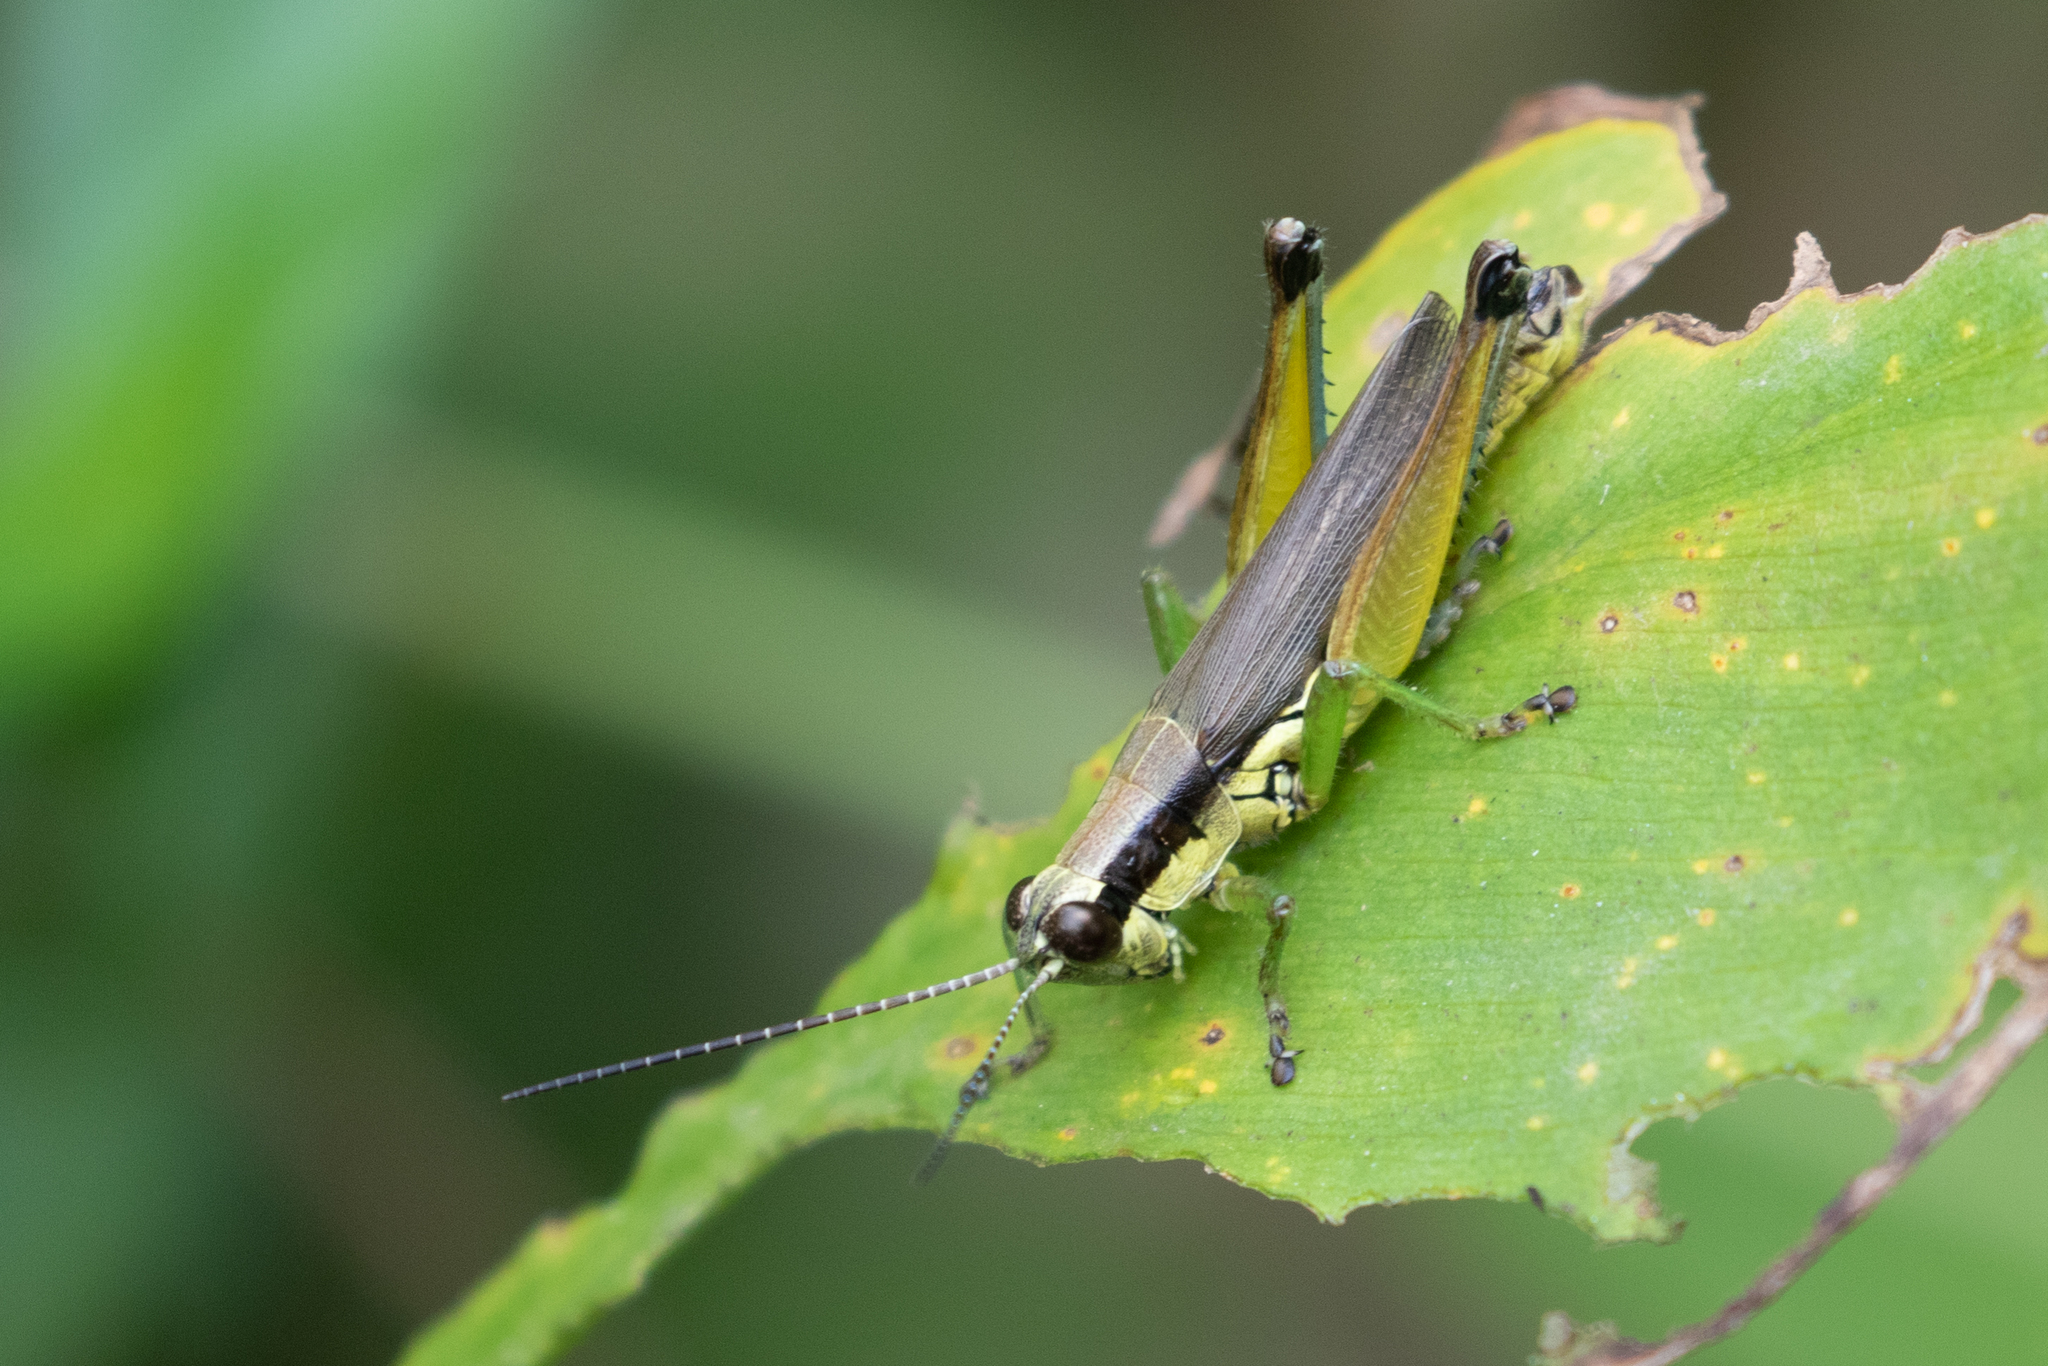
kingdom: Animalia
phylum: Arthropoda
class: Insecta
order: Orthoptera
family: Acrididae
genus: Paroxya
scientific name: Paroxya clavuligera
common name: Olive-green swamp grasshopper
